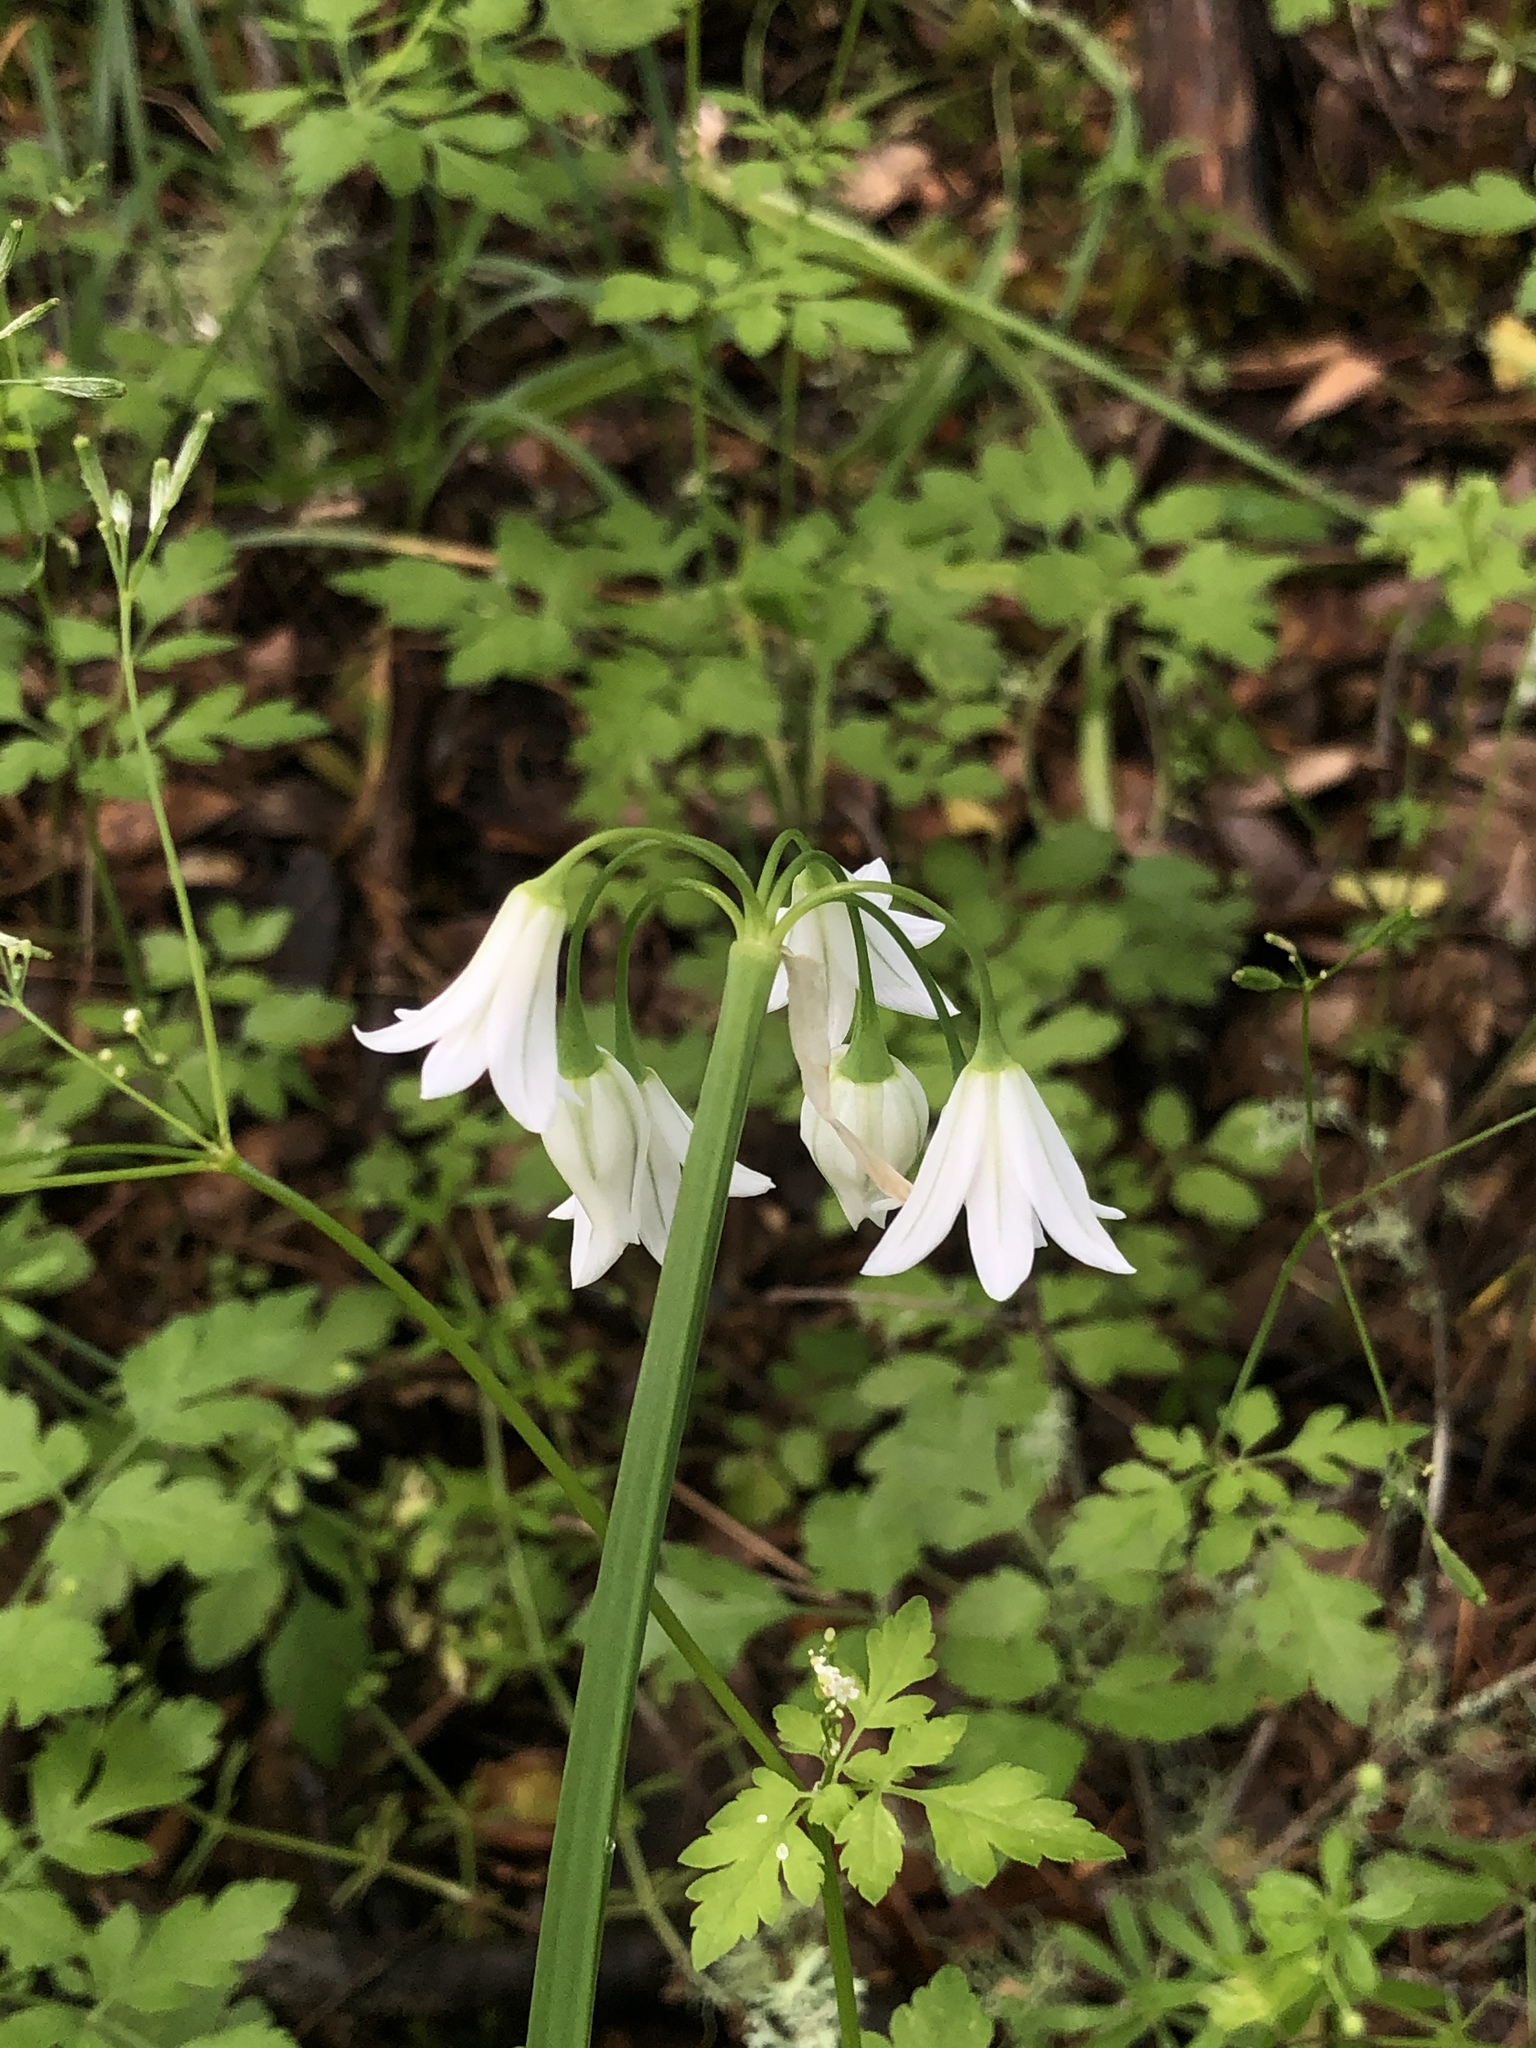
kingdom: Plantae
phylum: Tracheophyta
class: Liliopsida
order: Asparagales
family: Amaryllidaceae
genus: Allium
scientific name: Allium triquetrum
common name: Three-cornered garlic
